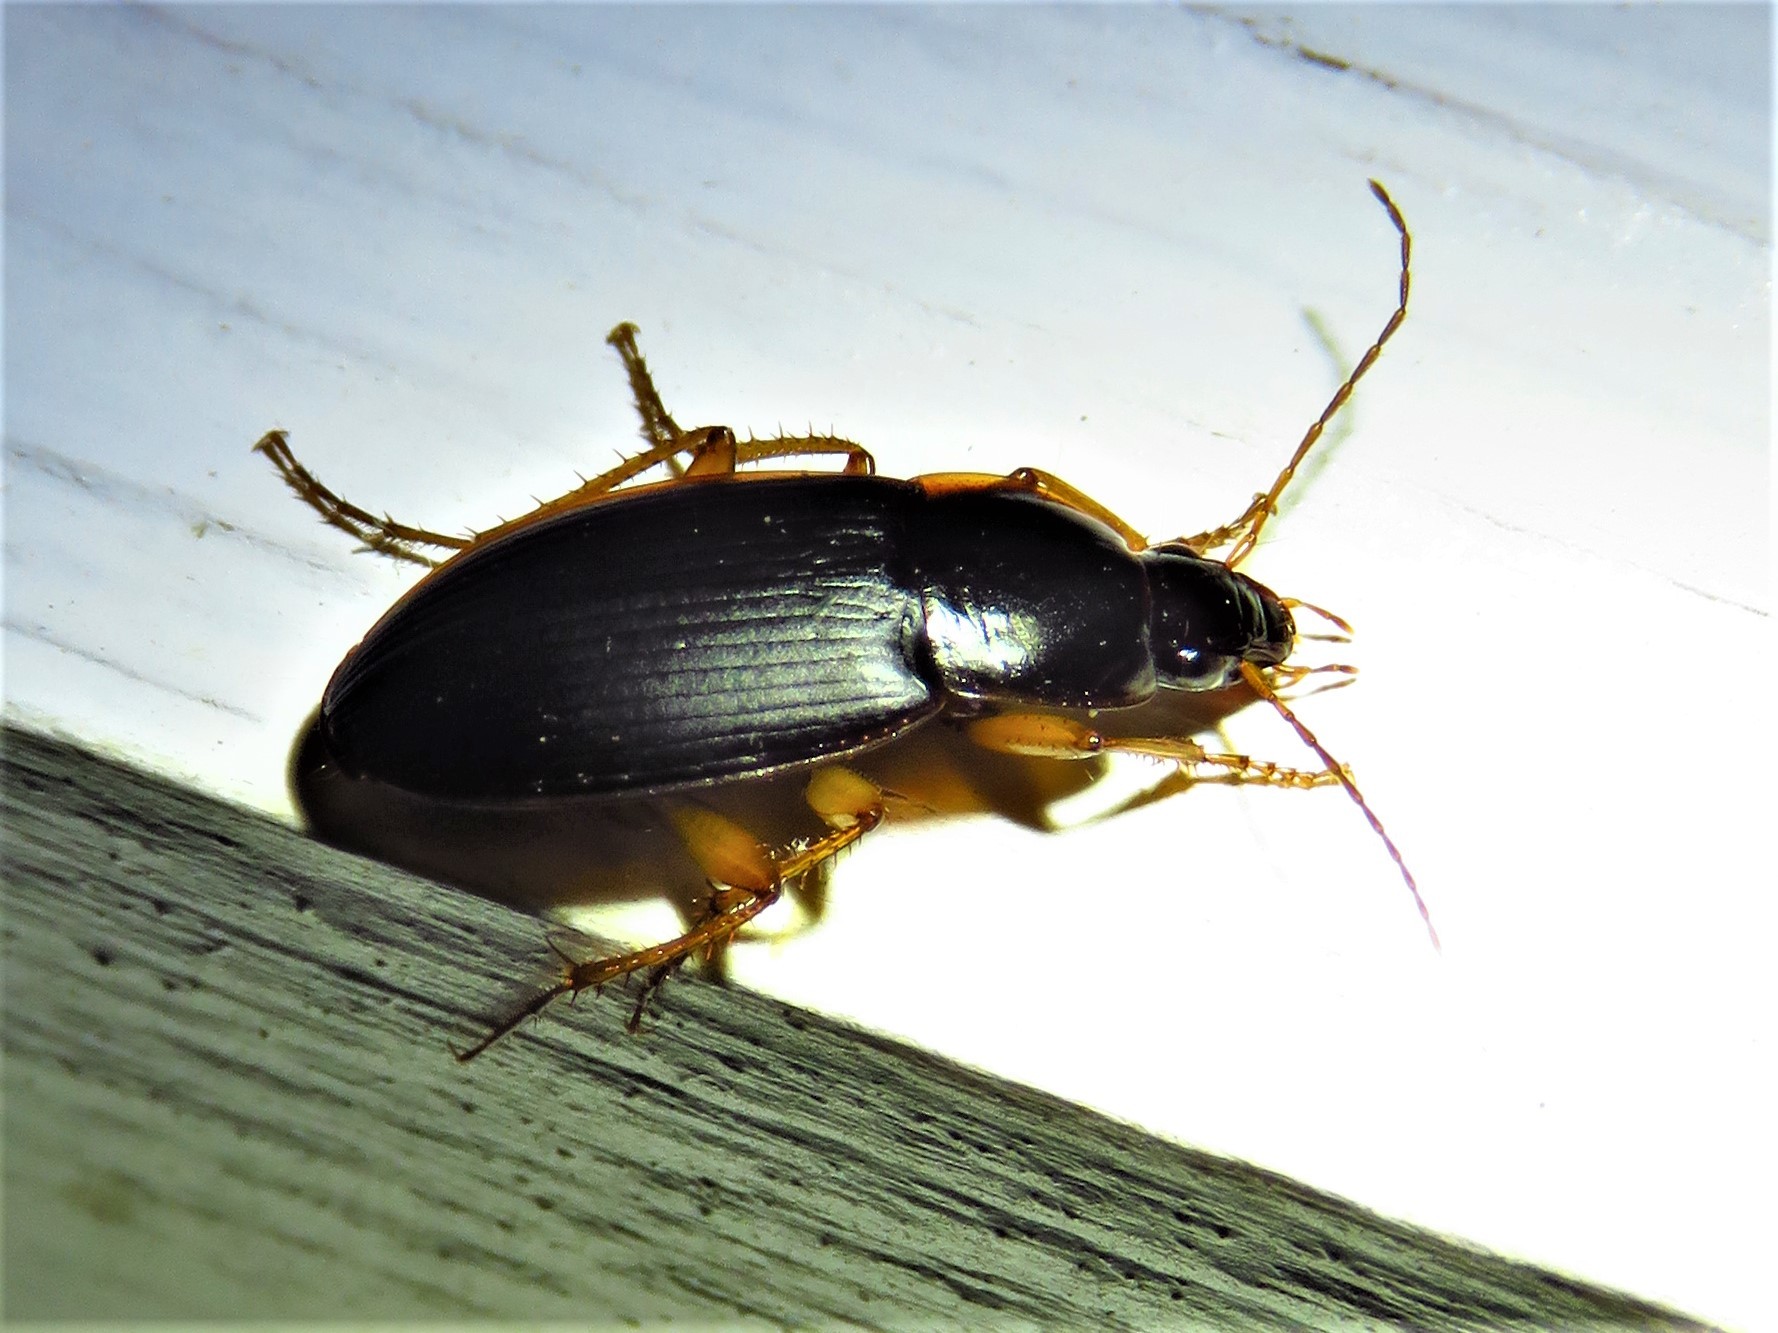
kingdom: Animalia
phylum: Arthropoda
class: Insecta
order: Coleoptera
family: Carabidae
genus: Calathus
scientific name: Calathus opaculus
